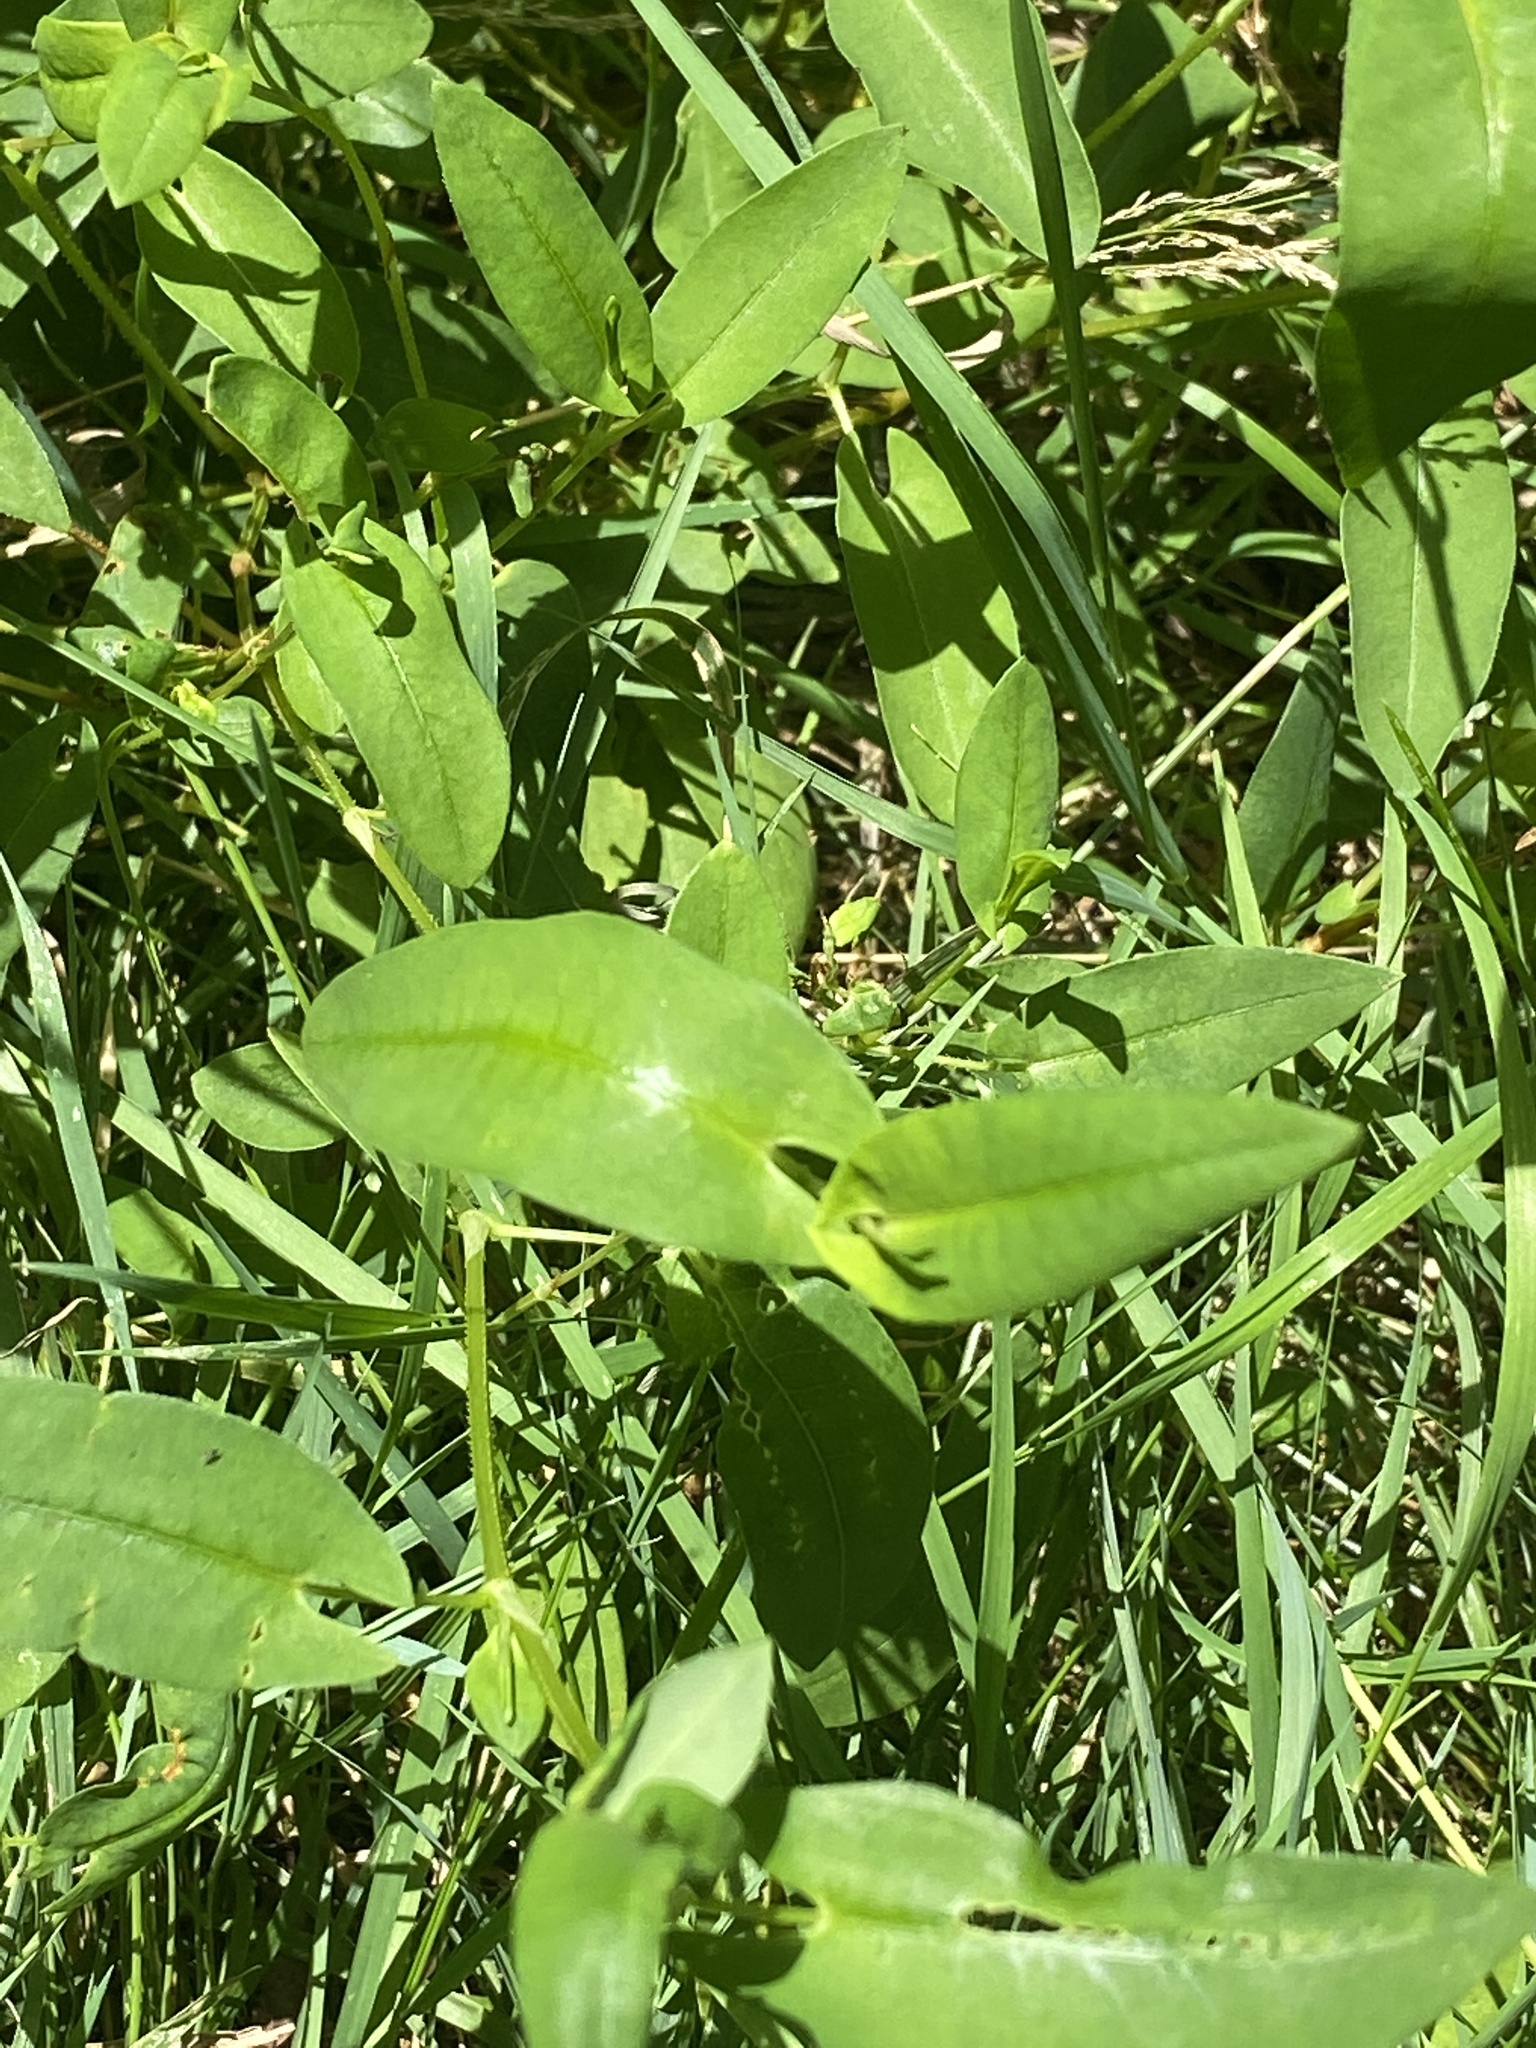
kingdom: Plantae
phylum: Tracheophyta
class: Magnoliopsida
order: Caryophyllales
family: Polygonaceae
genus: Persicaria
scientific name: Persicaria sagittata
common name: American tearthumb
